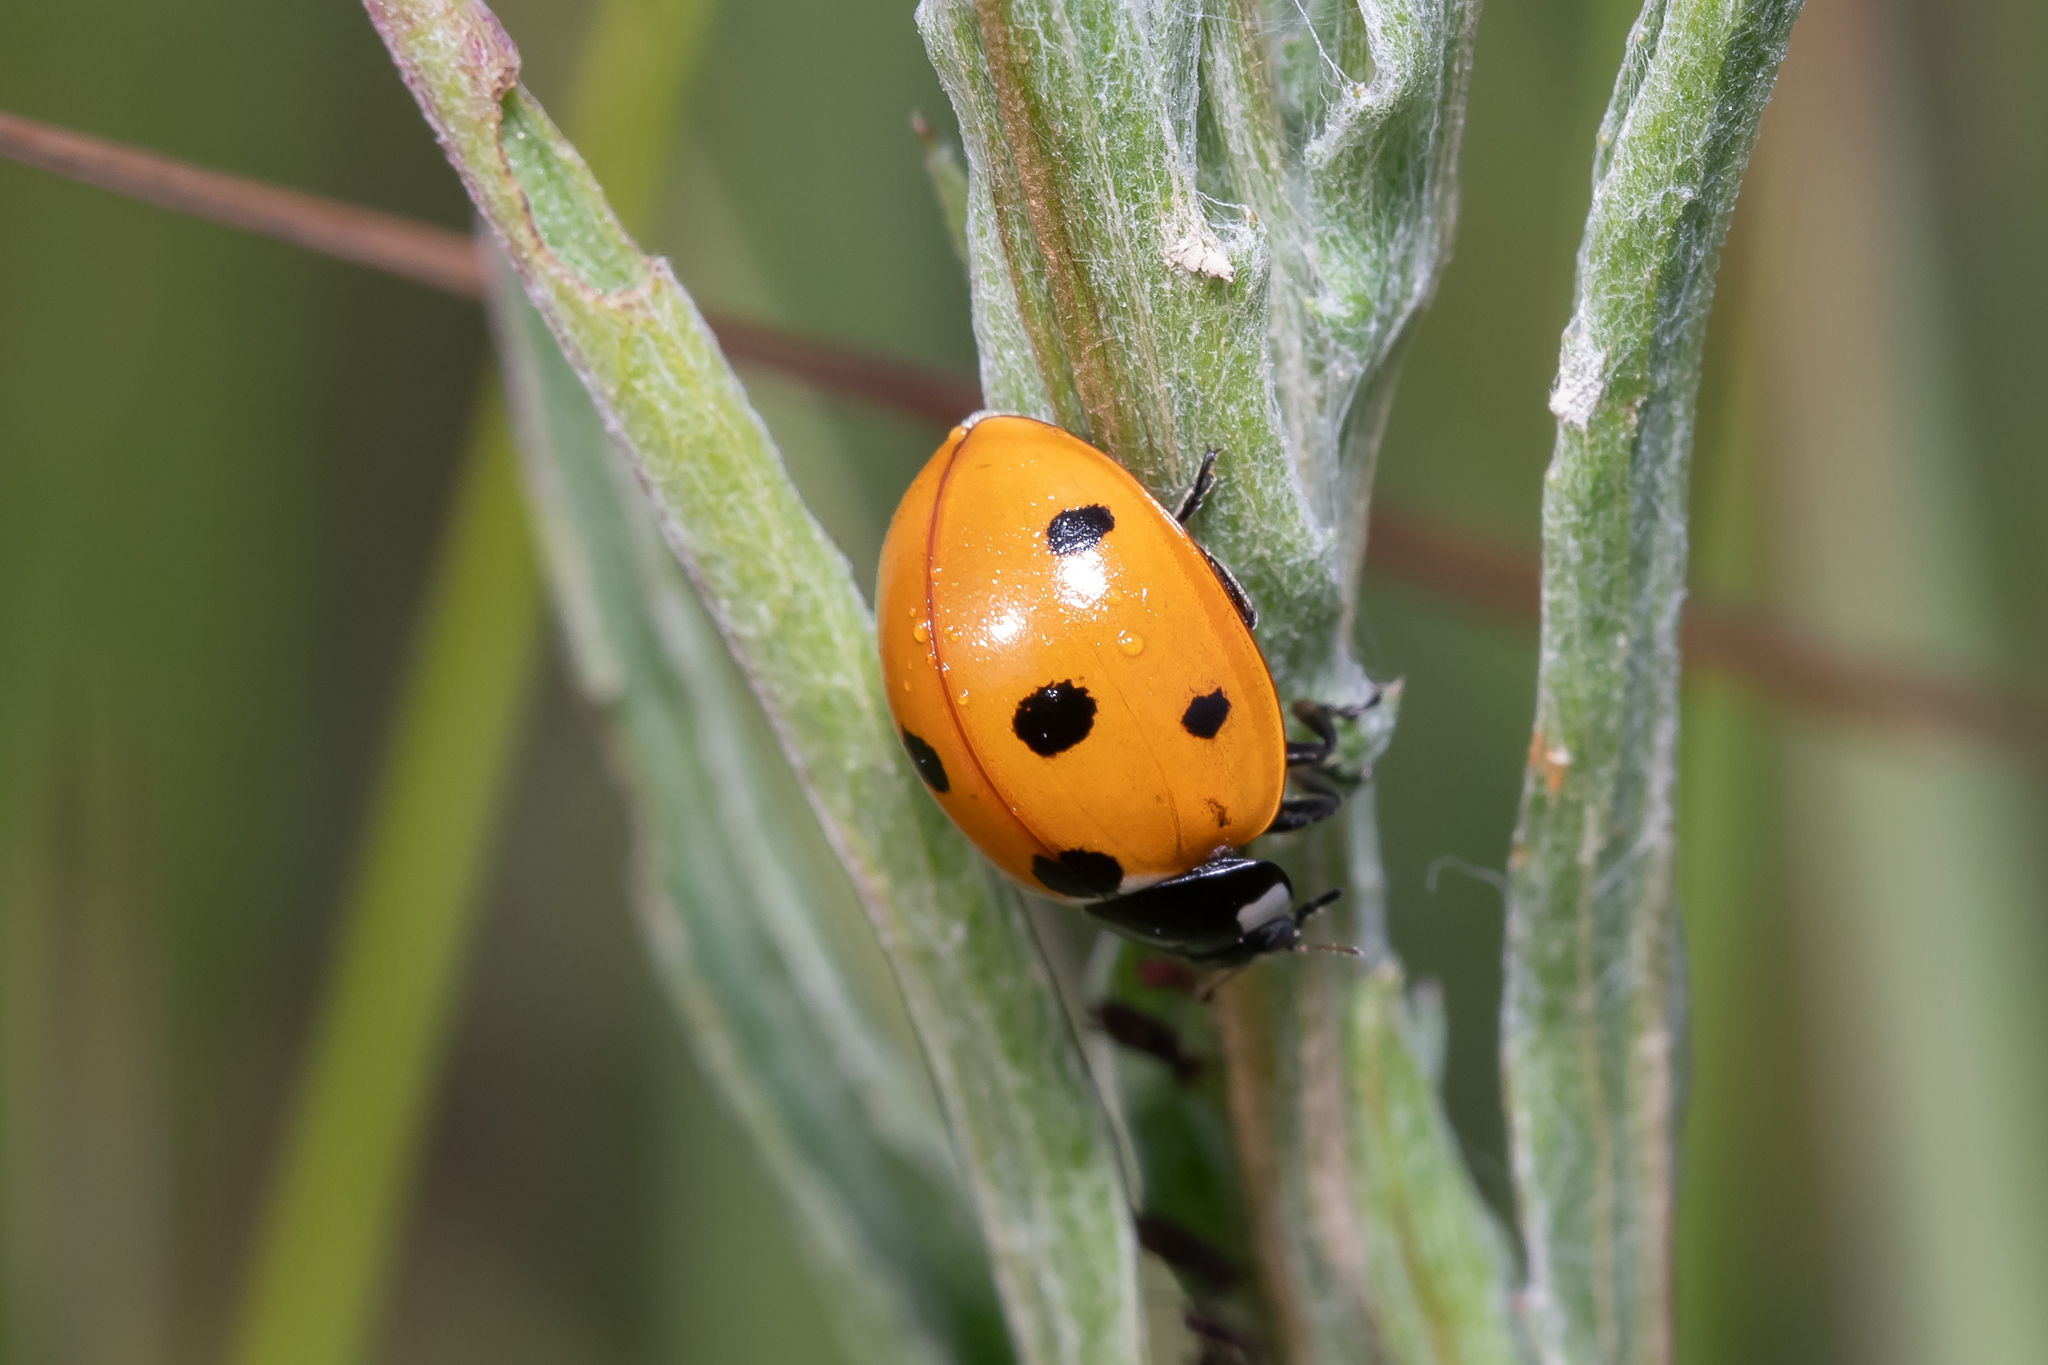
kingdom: Animalia
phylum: Arthropoda
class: Insecta
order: Coleoptera
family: Coccinellidae
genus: Coccinella
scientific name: Coccinella septempunctata
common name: Sevenspotted lady beetle
